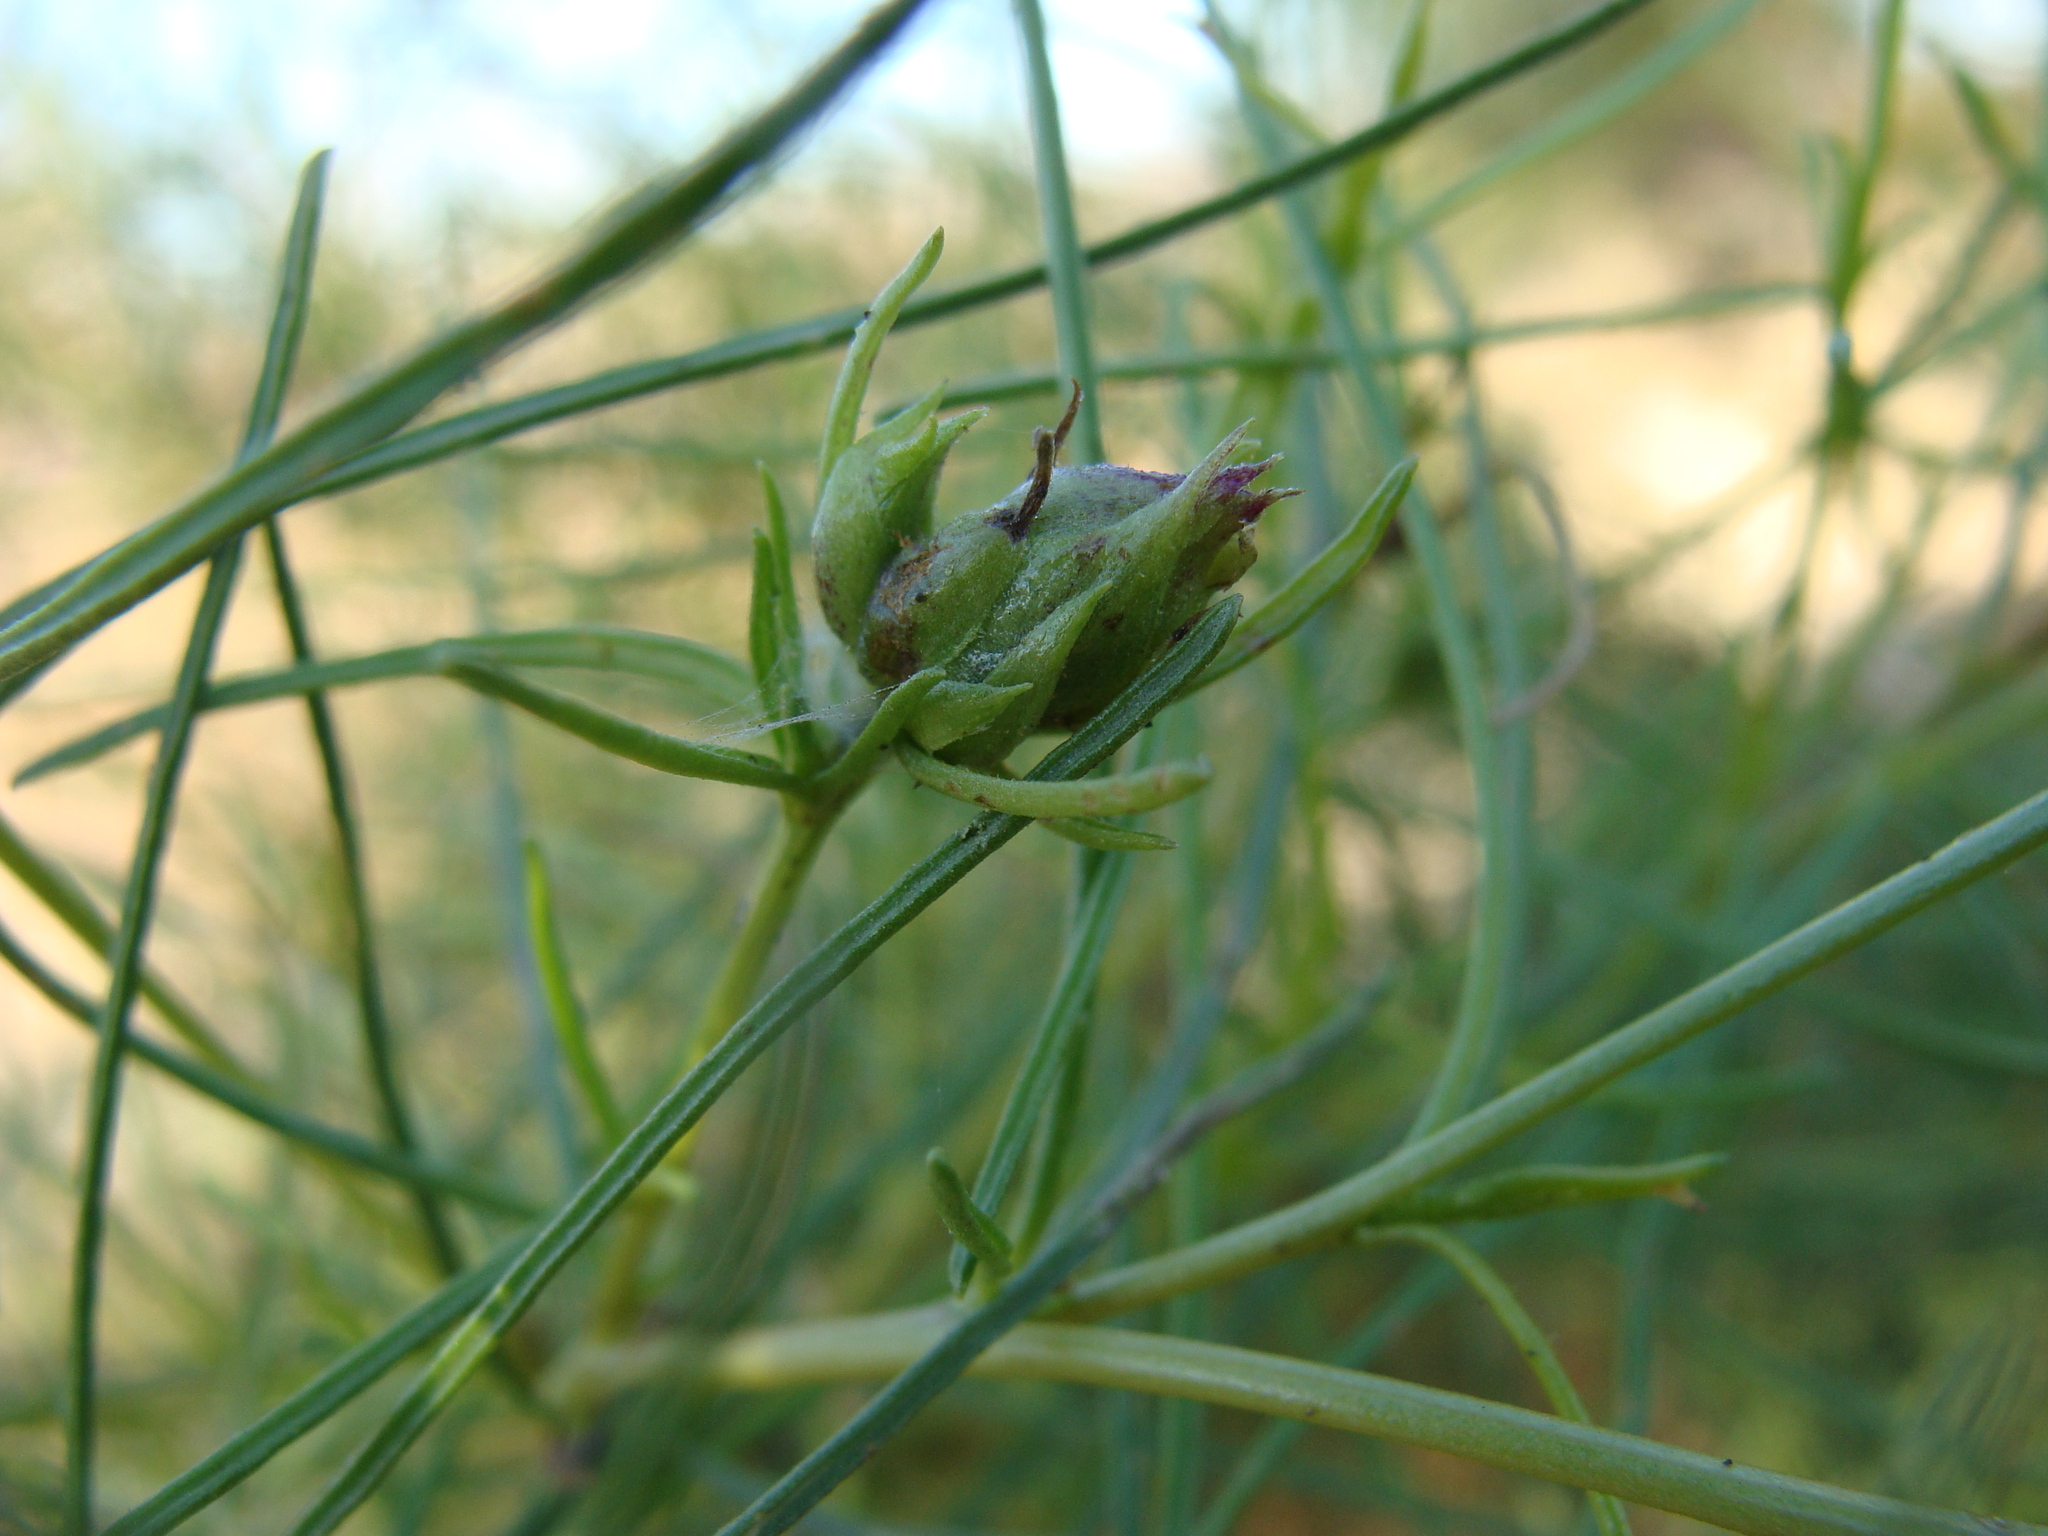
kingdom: Plantae
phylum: Tracheophyta
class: Magnoliopsida
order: Asterales
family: Asteraceae
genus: Ambrosia
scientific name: Ambrosia monogyra
